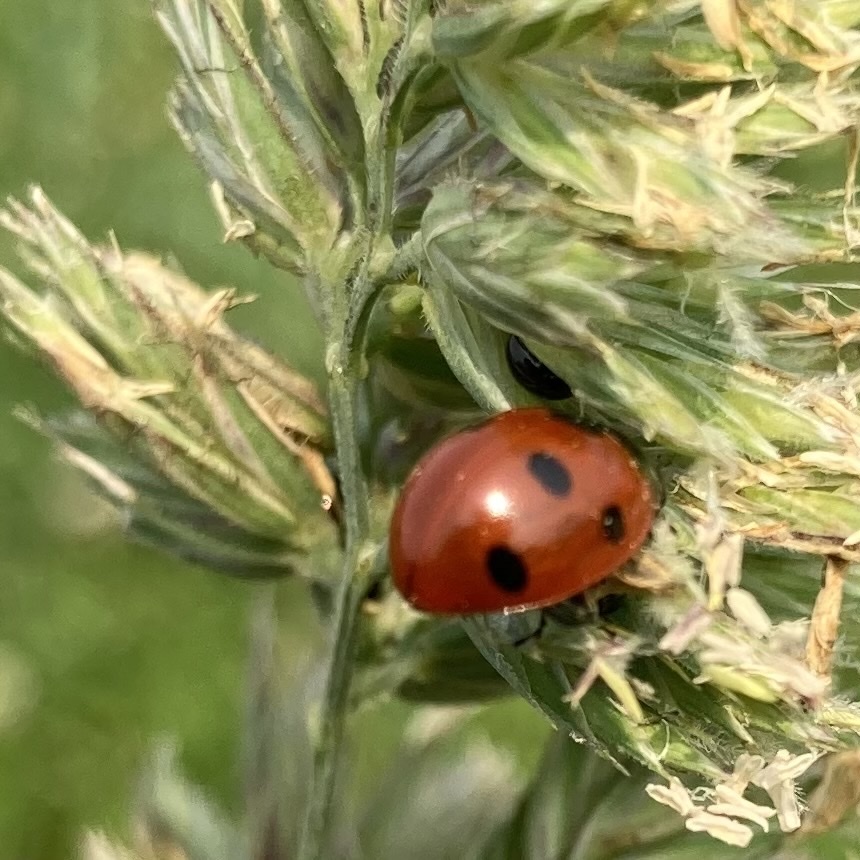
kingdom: Animalia
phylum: Arthropoda
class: Insecta
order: Coleoptera
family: Coccinellidae
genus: Coccinella
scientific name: Coccinella septempunctata
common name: Sevenspotted lady beetle
